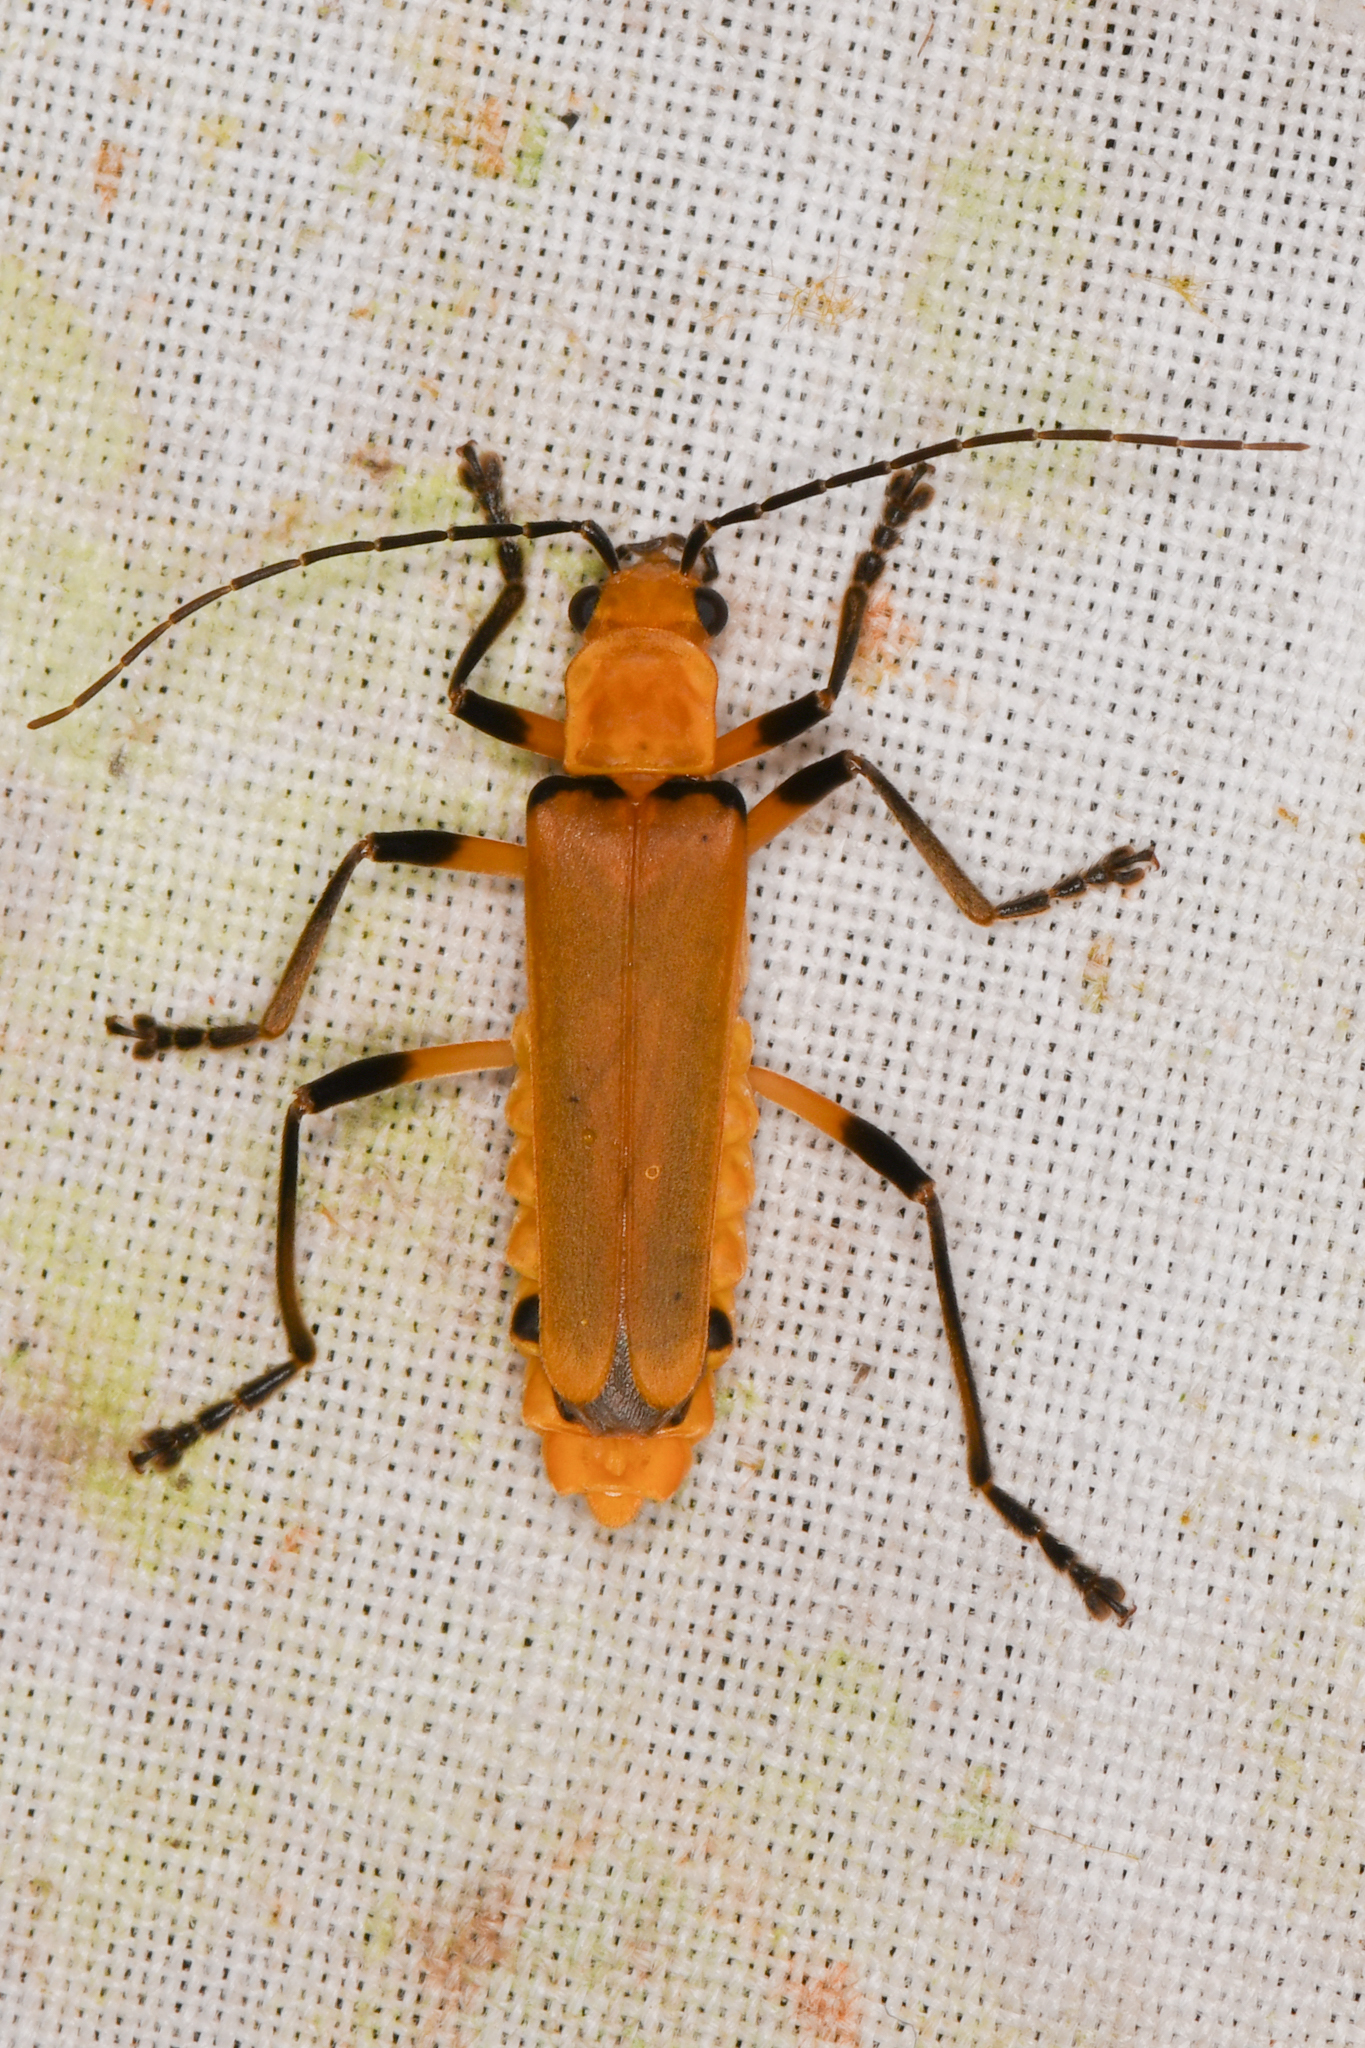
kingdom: Animalia
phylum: Arthropoda
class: Insecta
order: Coleoptera
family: Cantharidae
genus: Chauliognathus
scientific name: Chauliognathus
